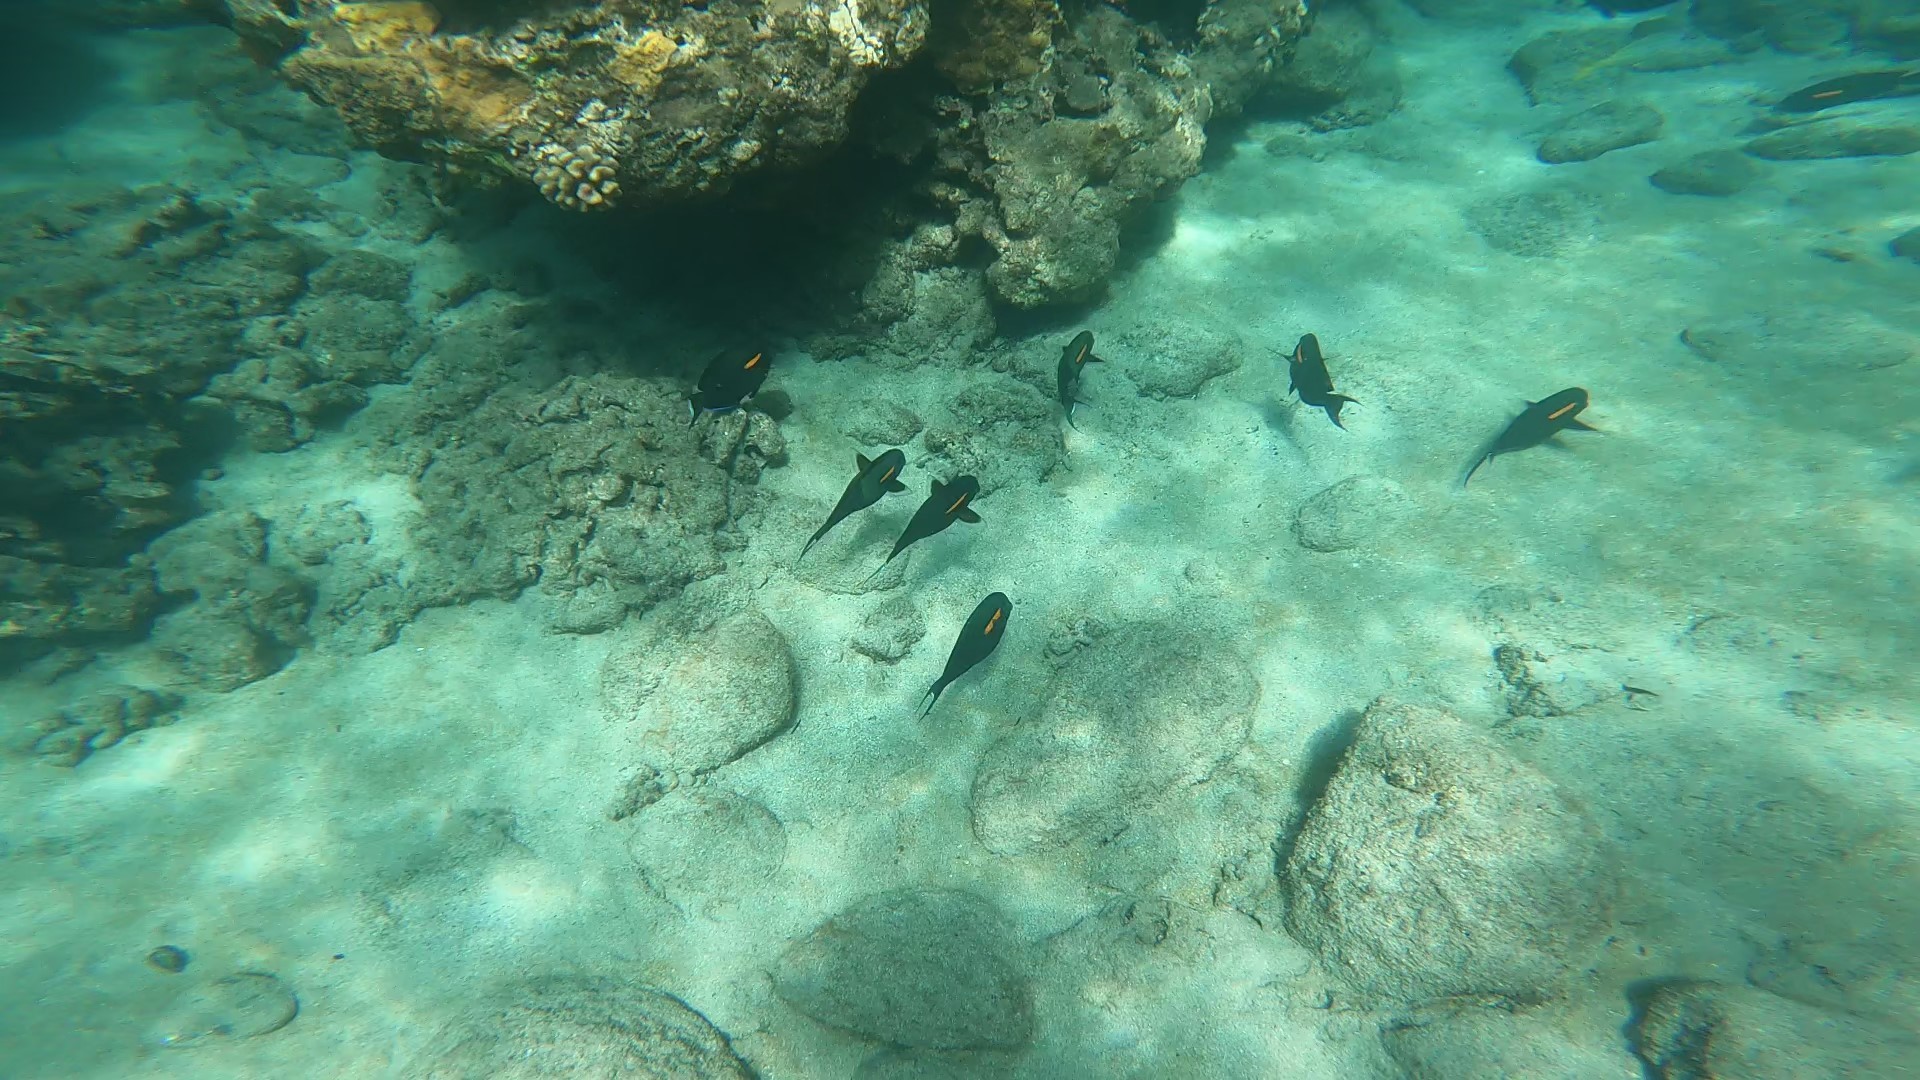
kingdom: Animalia
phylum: Chordata
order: Perciformes
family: Acanthuridae
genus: Acanthurus
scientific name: Acanthurus olivaceus
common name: Gendarme fish
